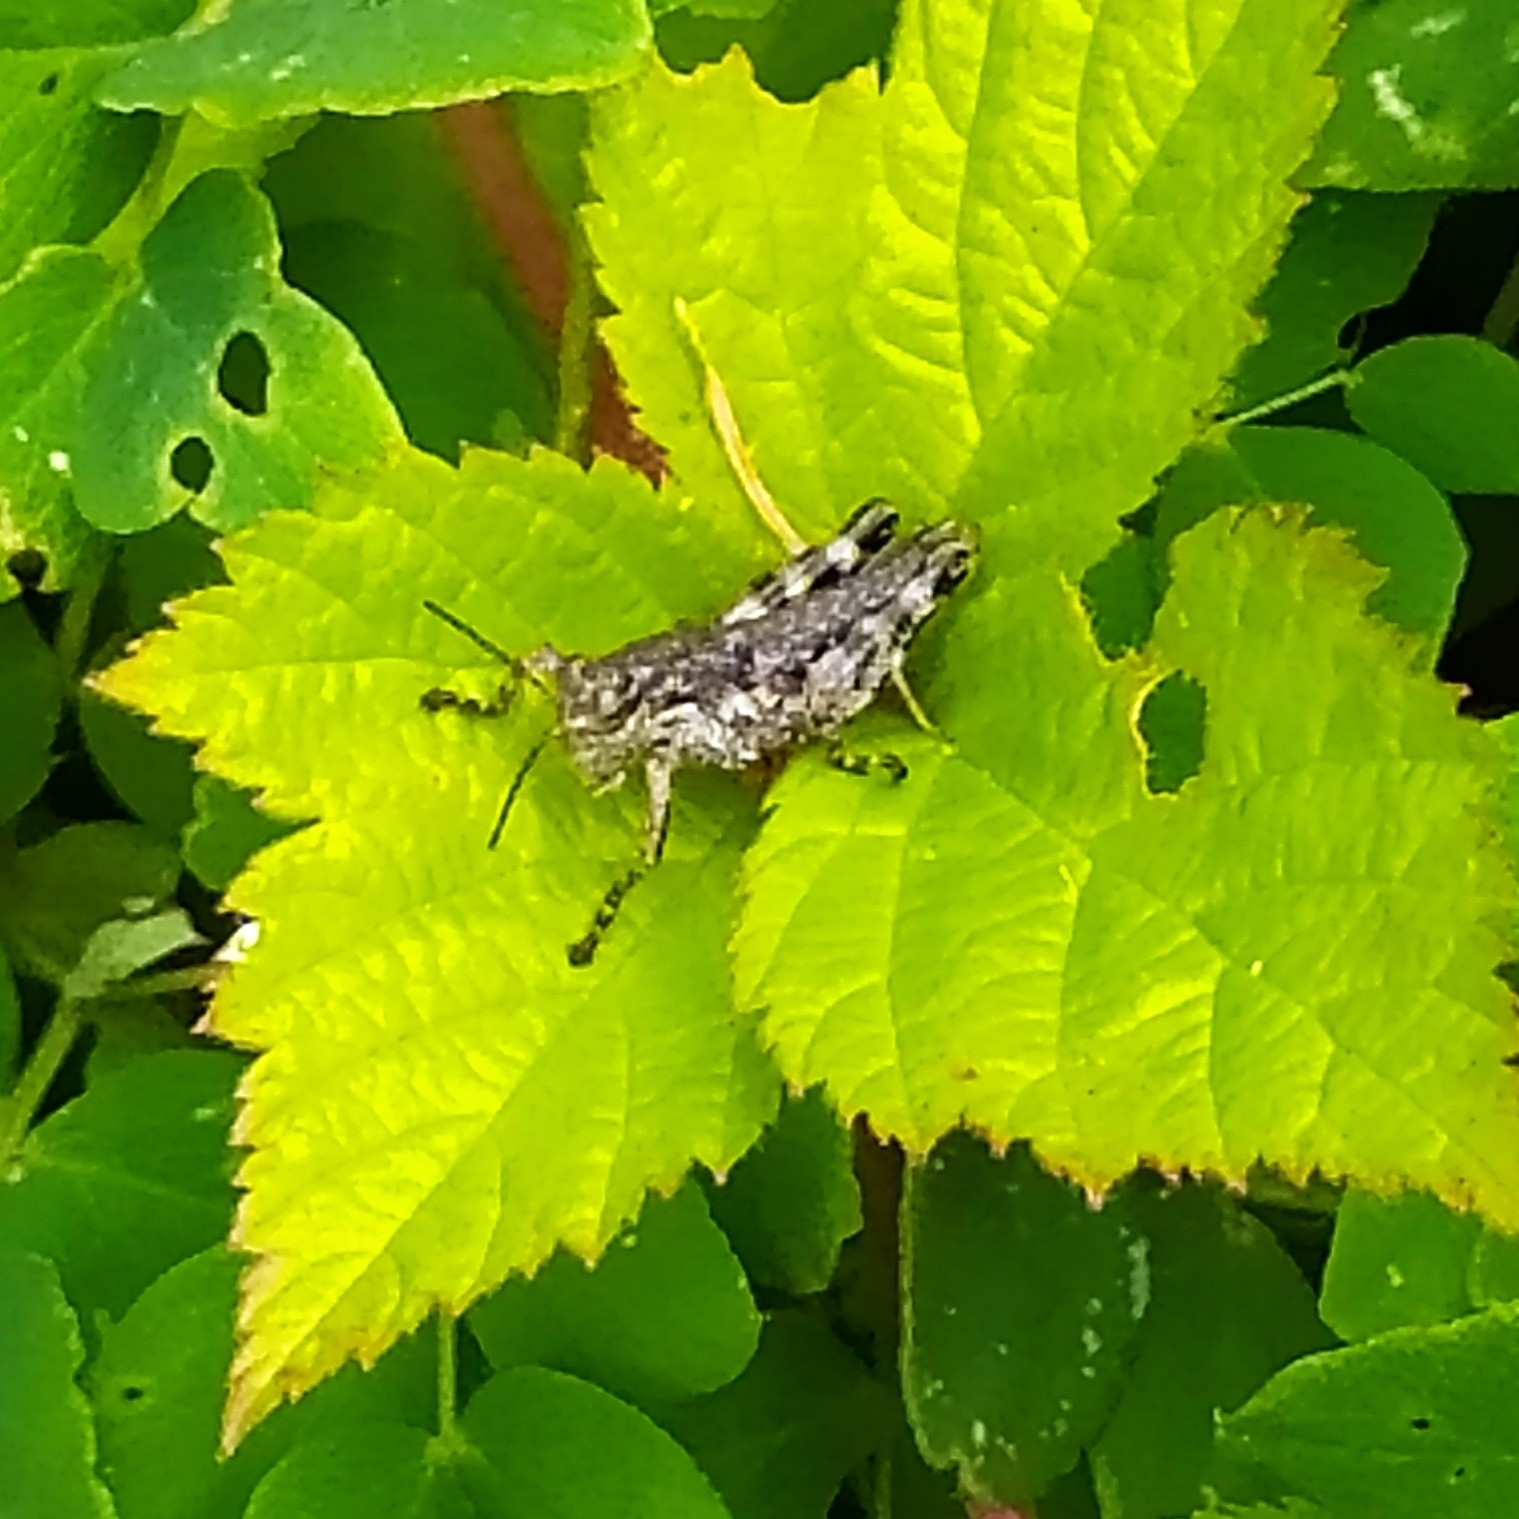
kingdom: Animalia
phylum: Arthropoda
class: Insecta
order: Orthoptera
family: Acrididae
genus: Podisma
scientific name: Podisma pedestris
